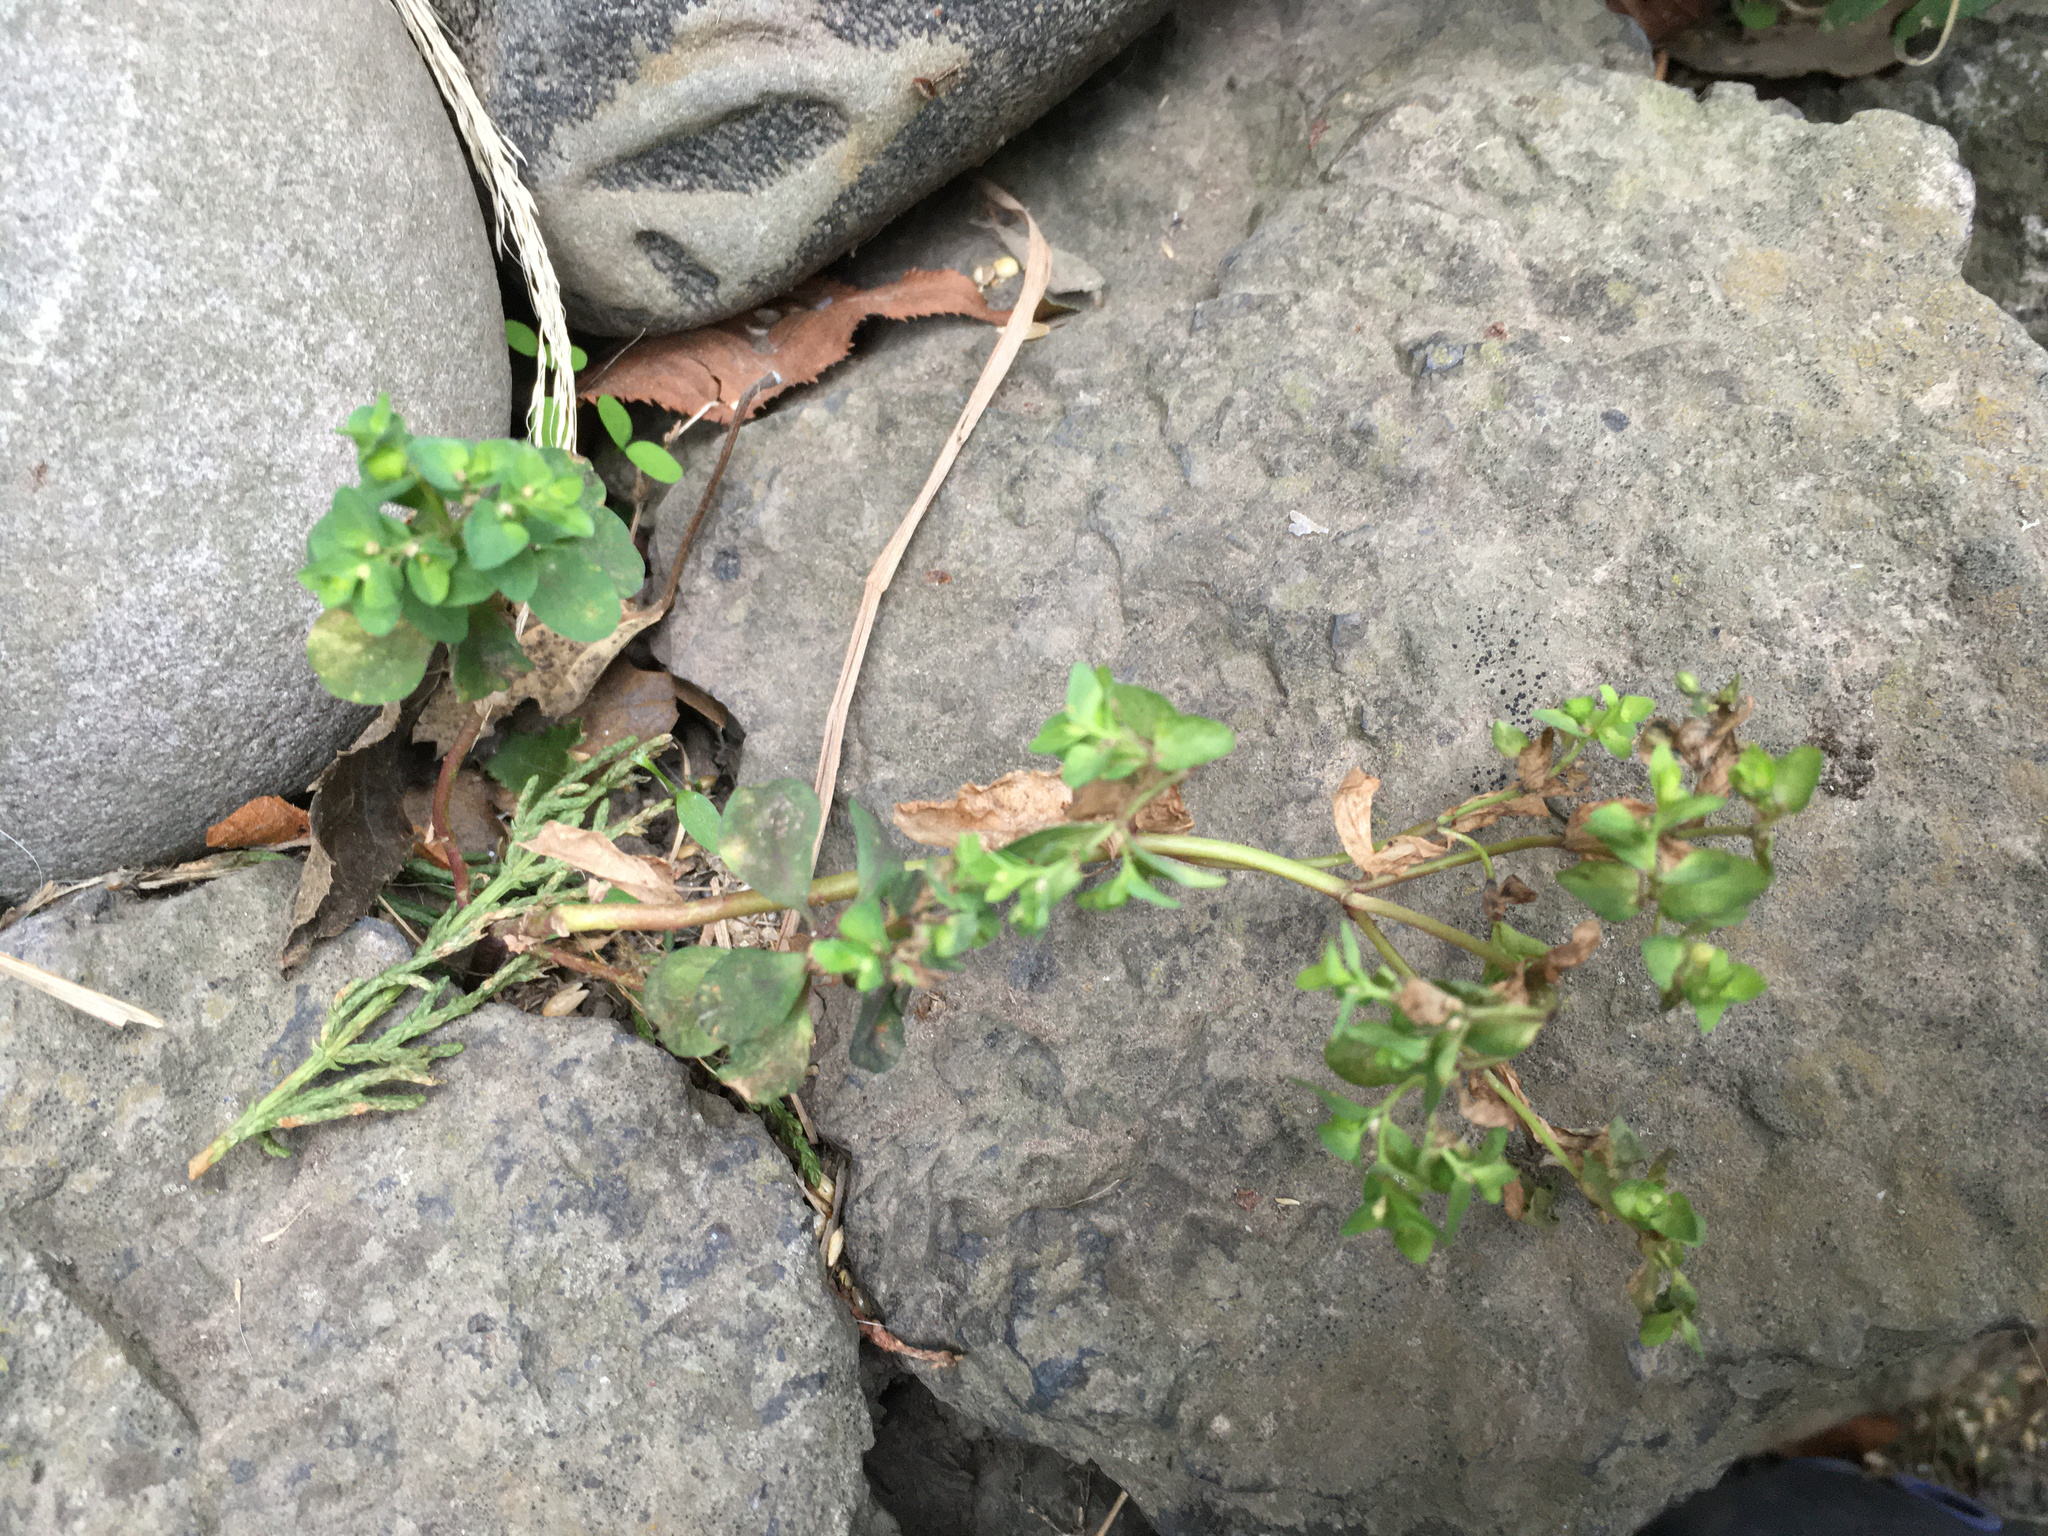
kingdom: Plantae
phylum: Tracheophyta
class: Magnoliopsida
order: Malpighiales
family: Euphorbiaceae
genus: Euphorbia
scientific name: Euphorbia peplus
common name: Petty spurge
